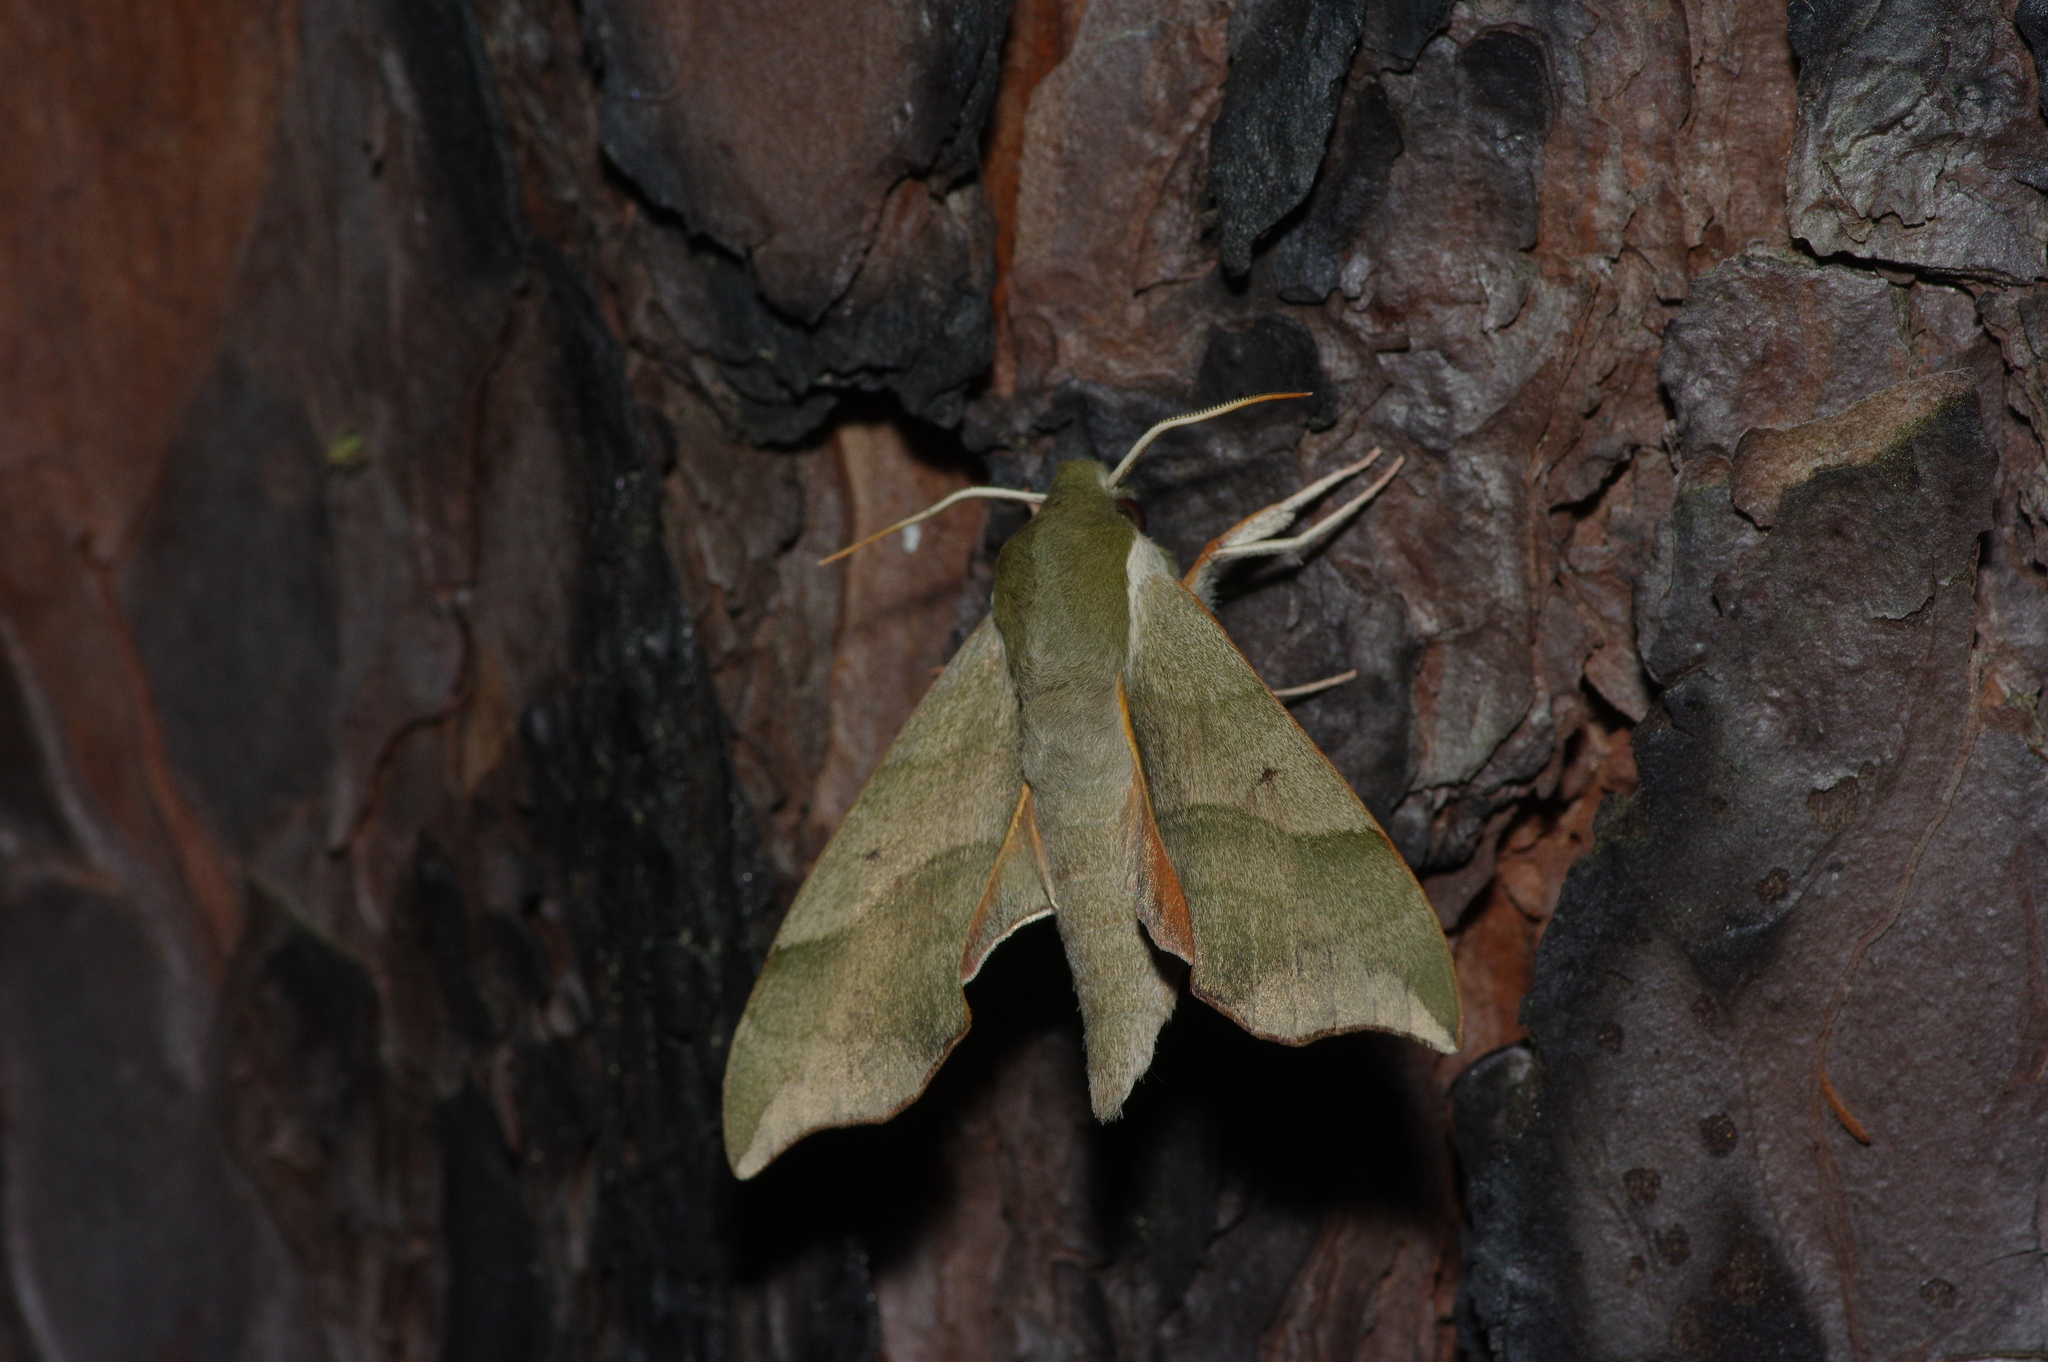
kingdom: Animalia
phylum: Arthropoda
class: Insecta
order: Lepidoptera
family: Sphingidae
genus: Darapsa
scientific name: Darapsa myron
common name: Hog sphinx
